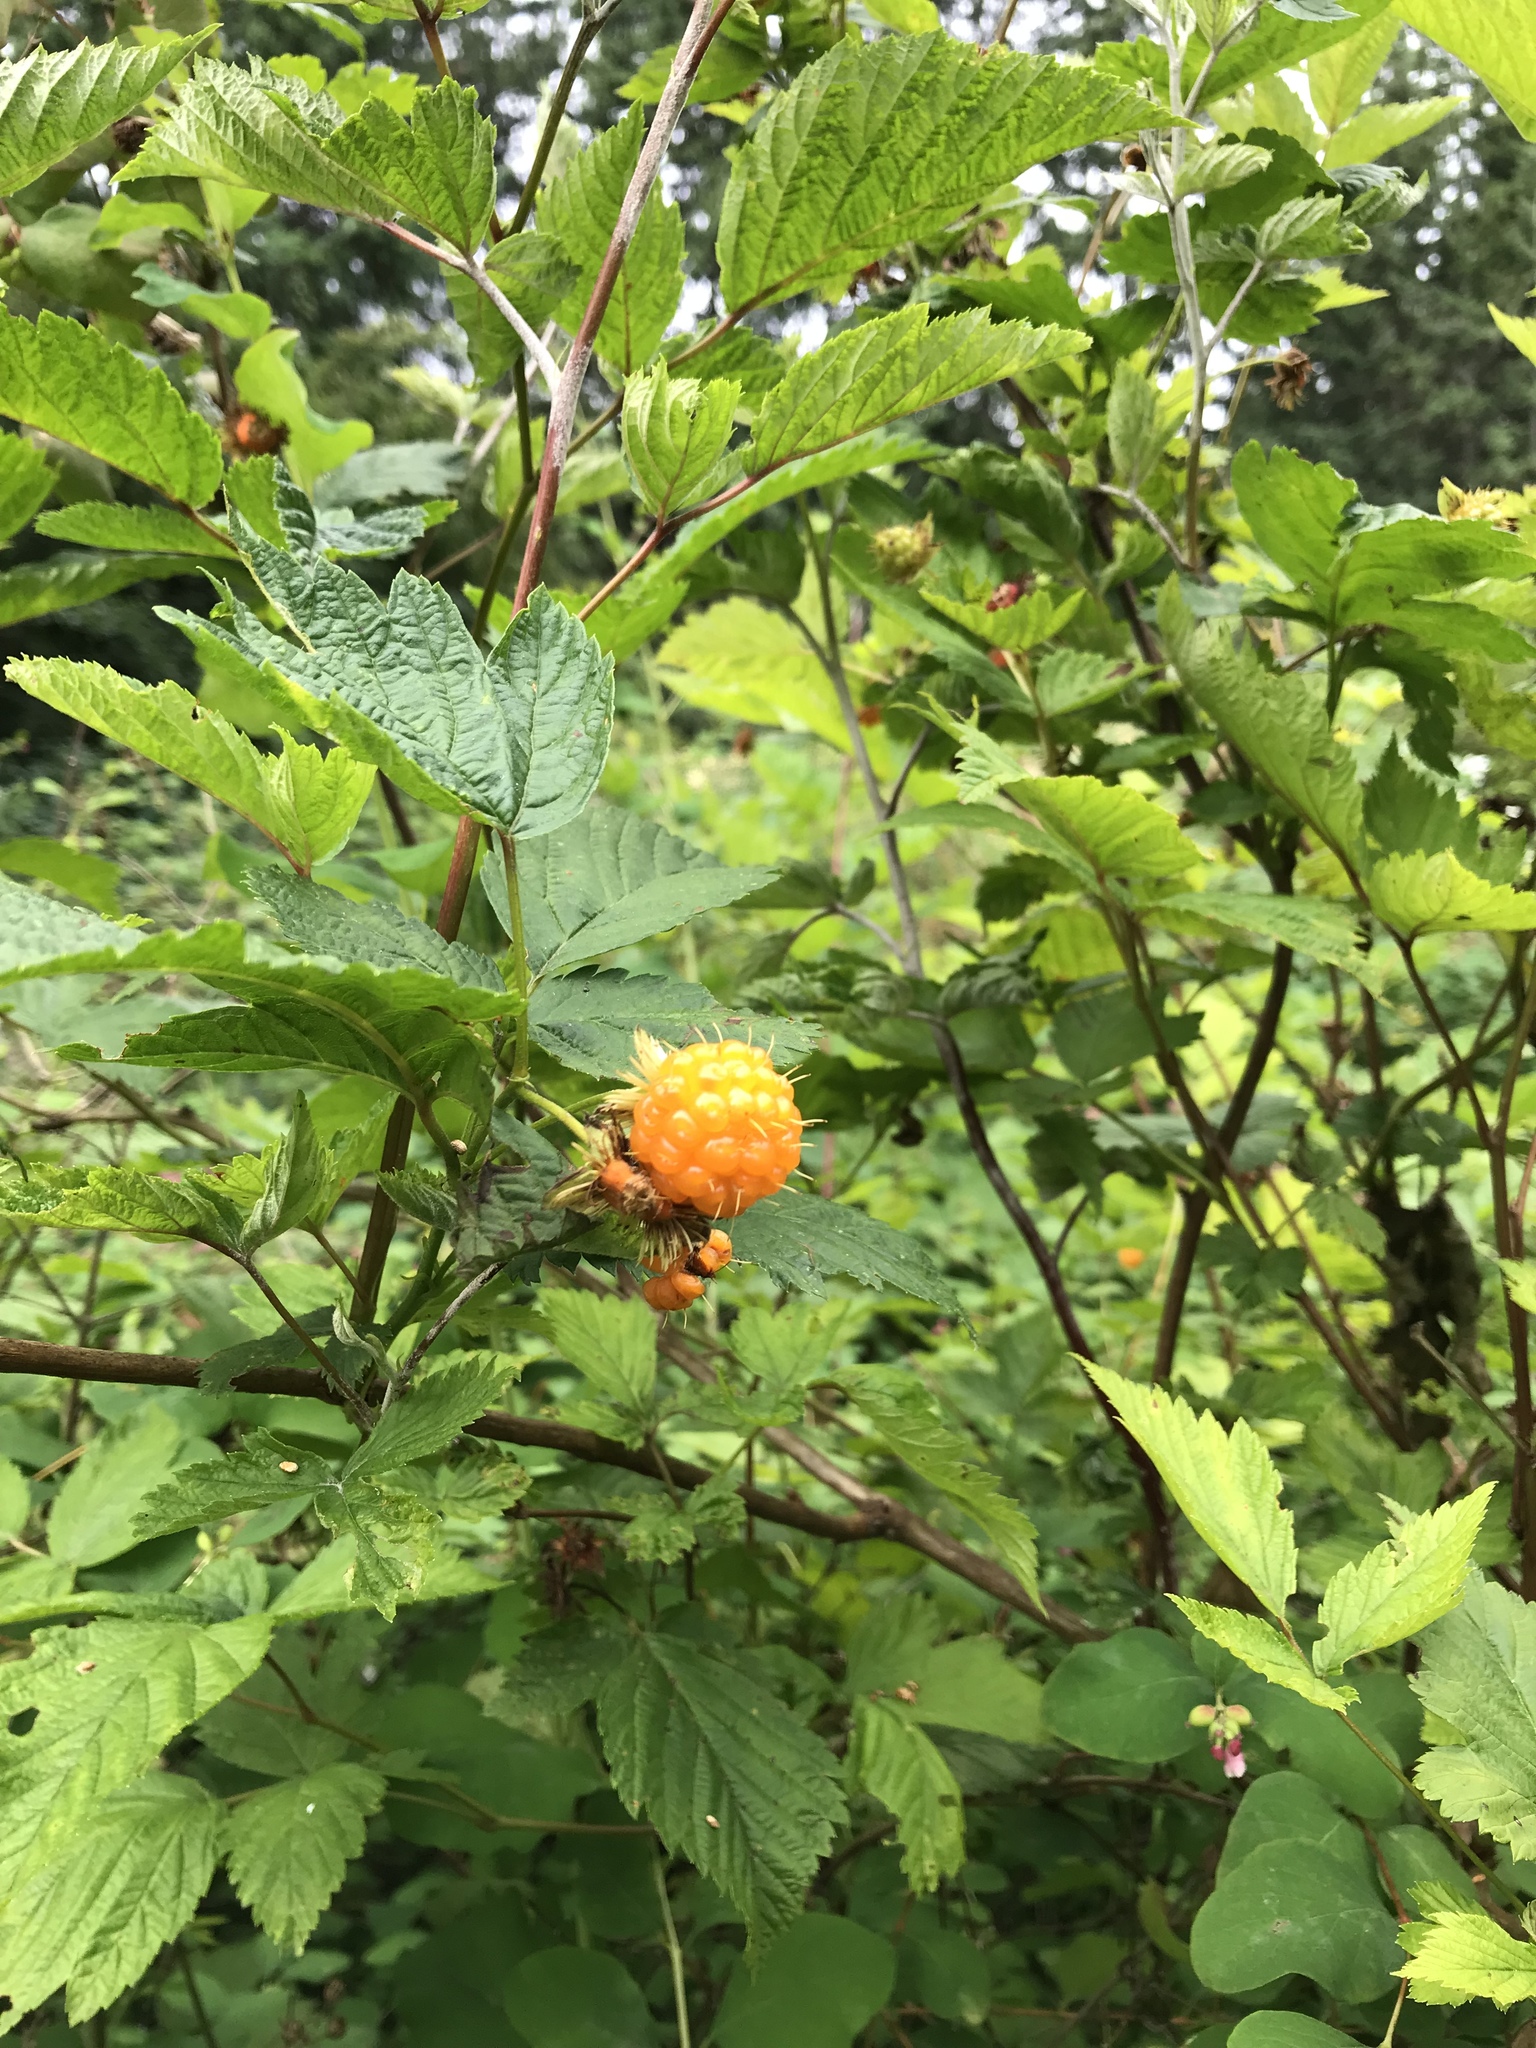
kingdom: Plantae
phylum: Tracheophyta
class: Magnoliopsida
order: Rosales
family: Rosaceae
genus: Rubus
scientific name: Rubus spectabilis
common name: Salmonberry
